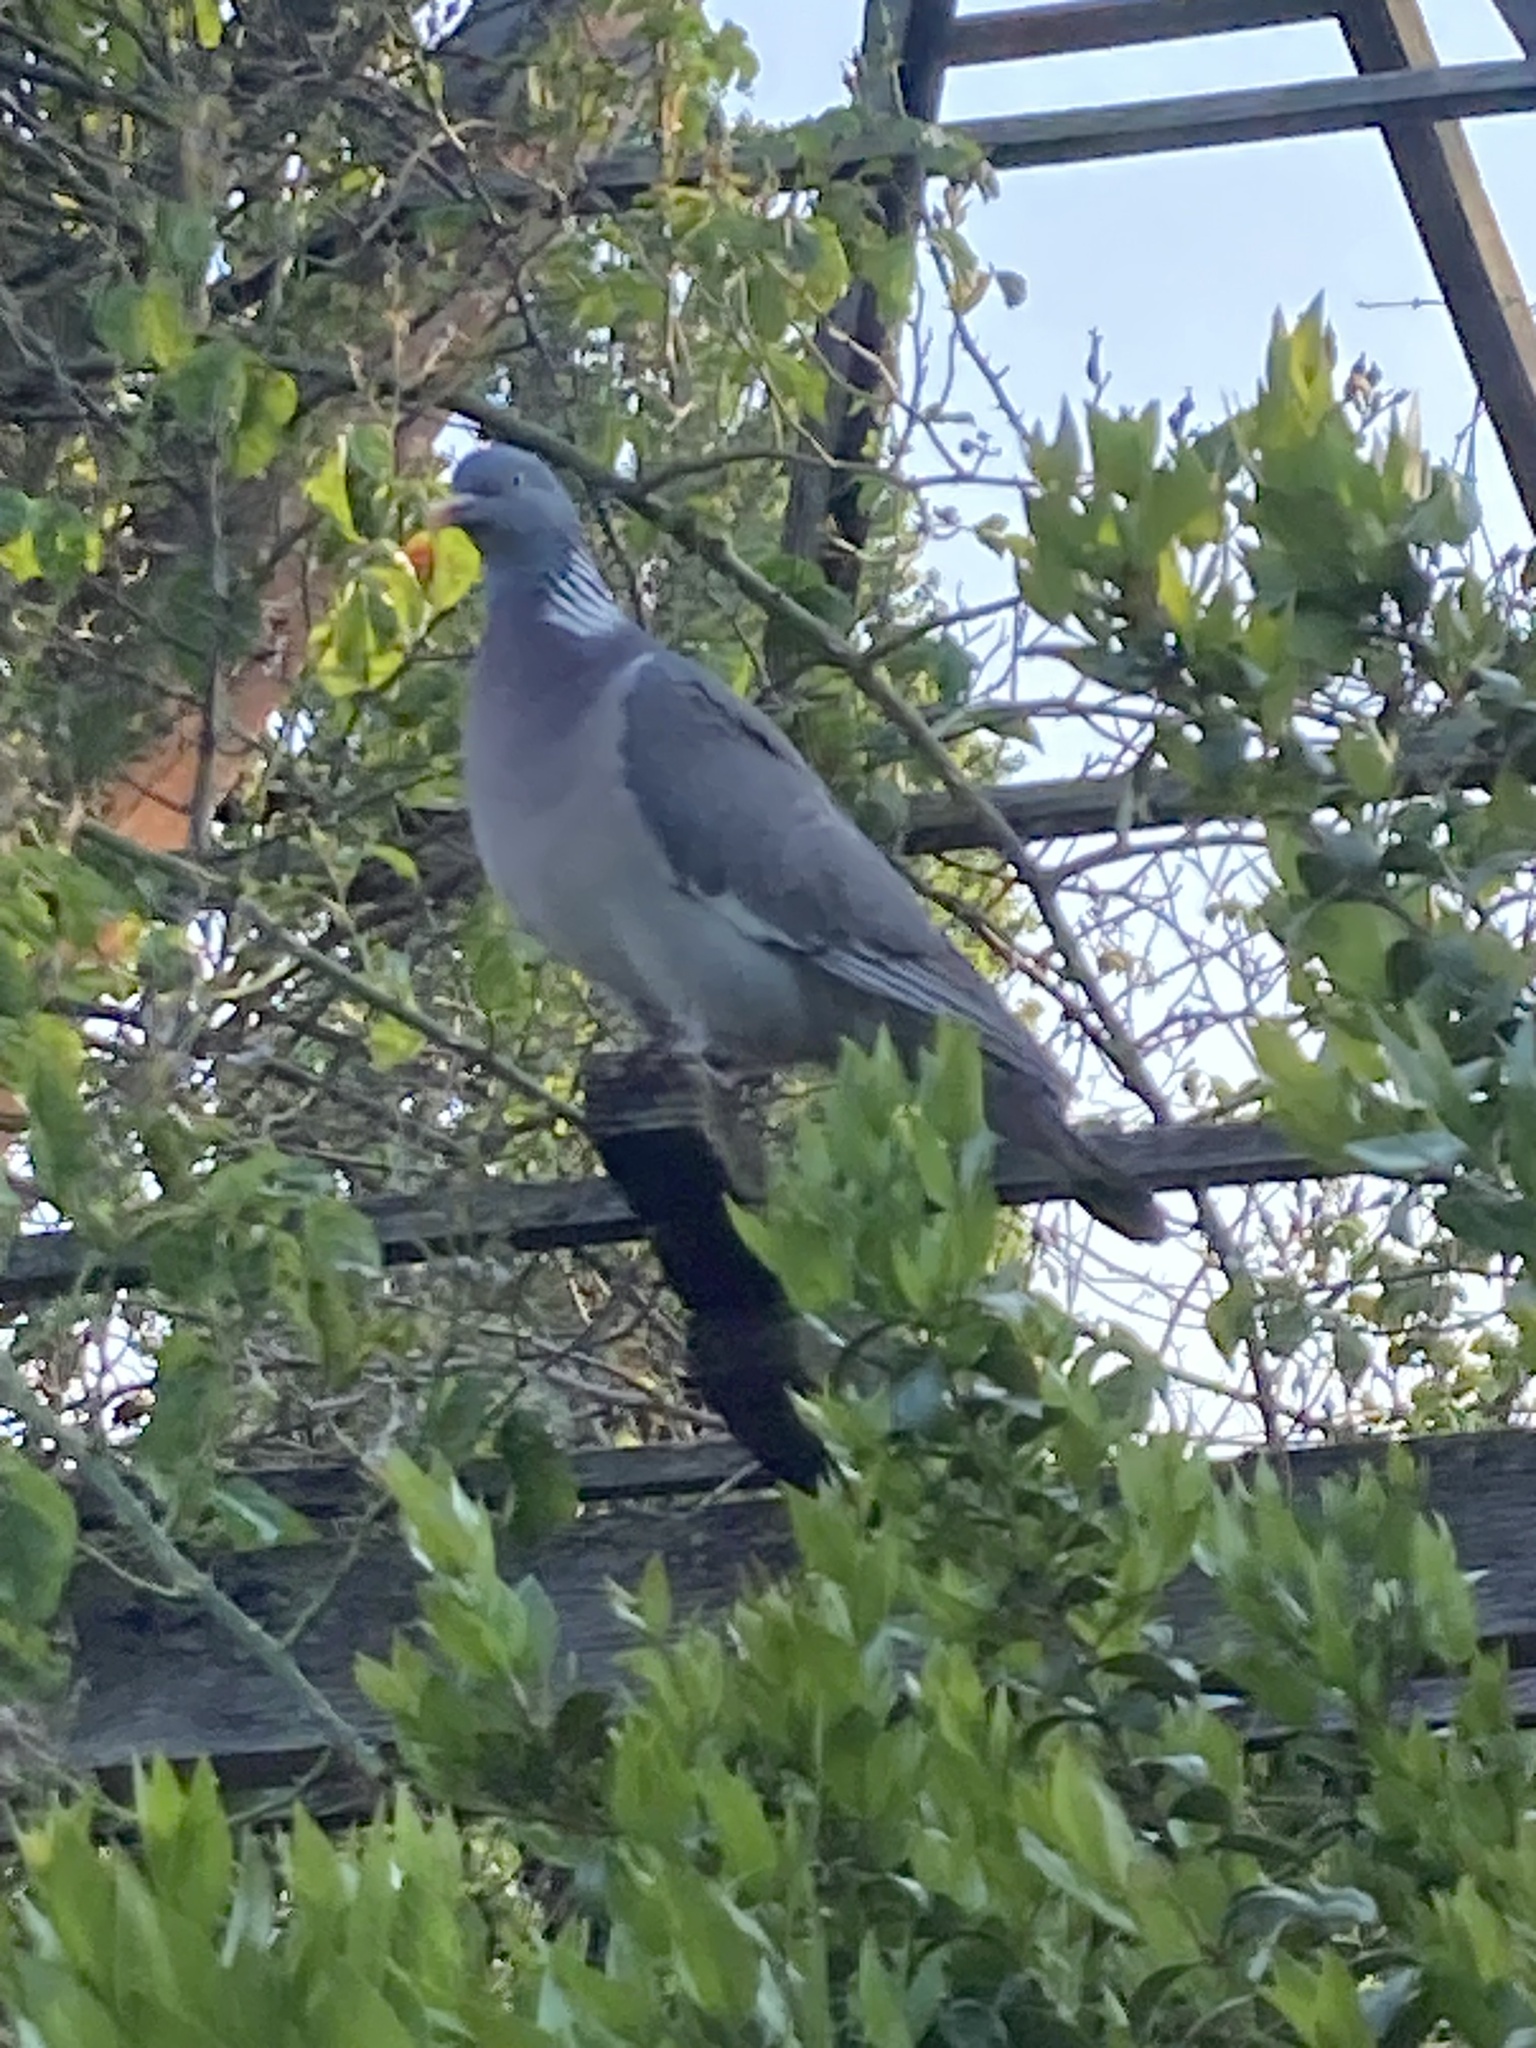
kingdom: Animalia
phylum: Chordata
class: Aves
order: Columbiformes
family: Columbidae
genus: Columba
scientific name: Columba palumbus
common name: Common wood pigeon
